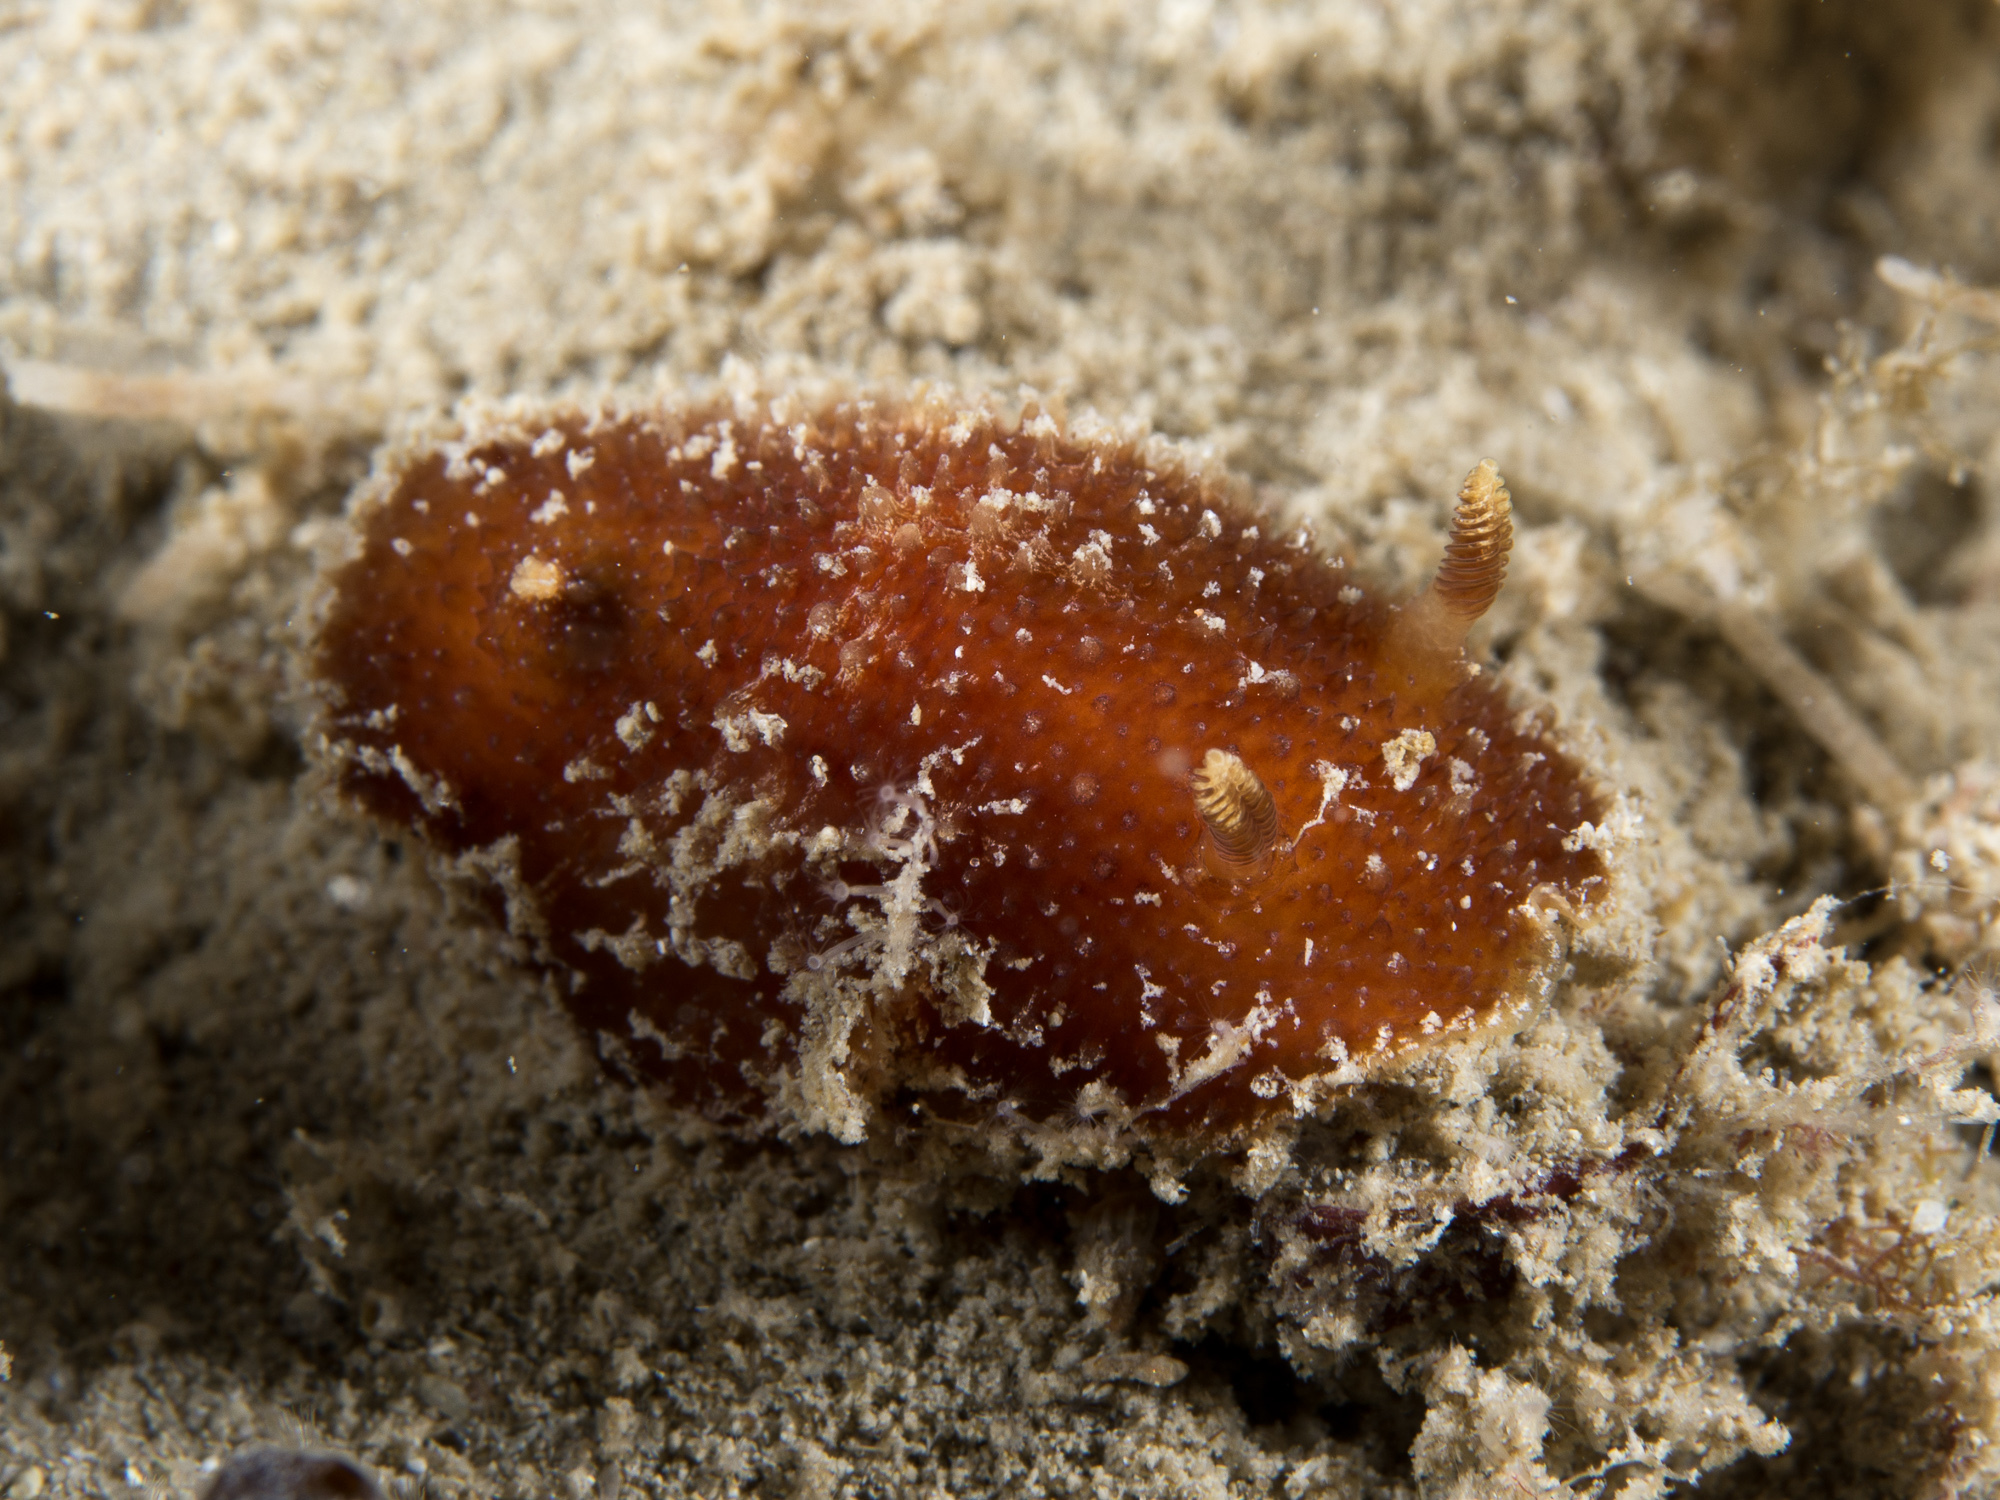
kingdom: Animalia
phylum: Mollusca
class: Gastropoda
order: Nudibranchia
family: Discodorididae
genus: Thordisa
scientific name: Thordisa azmanii
